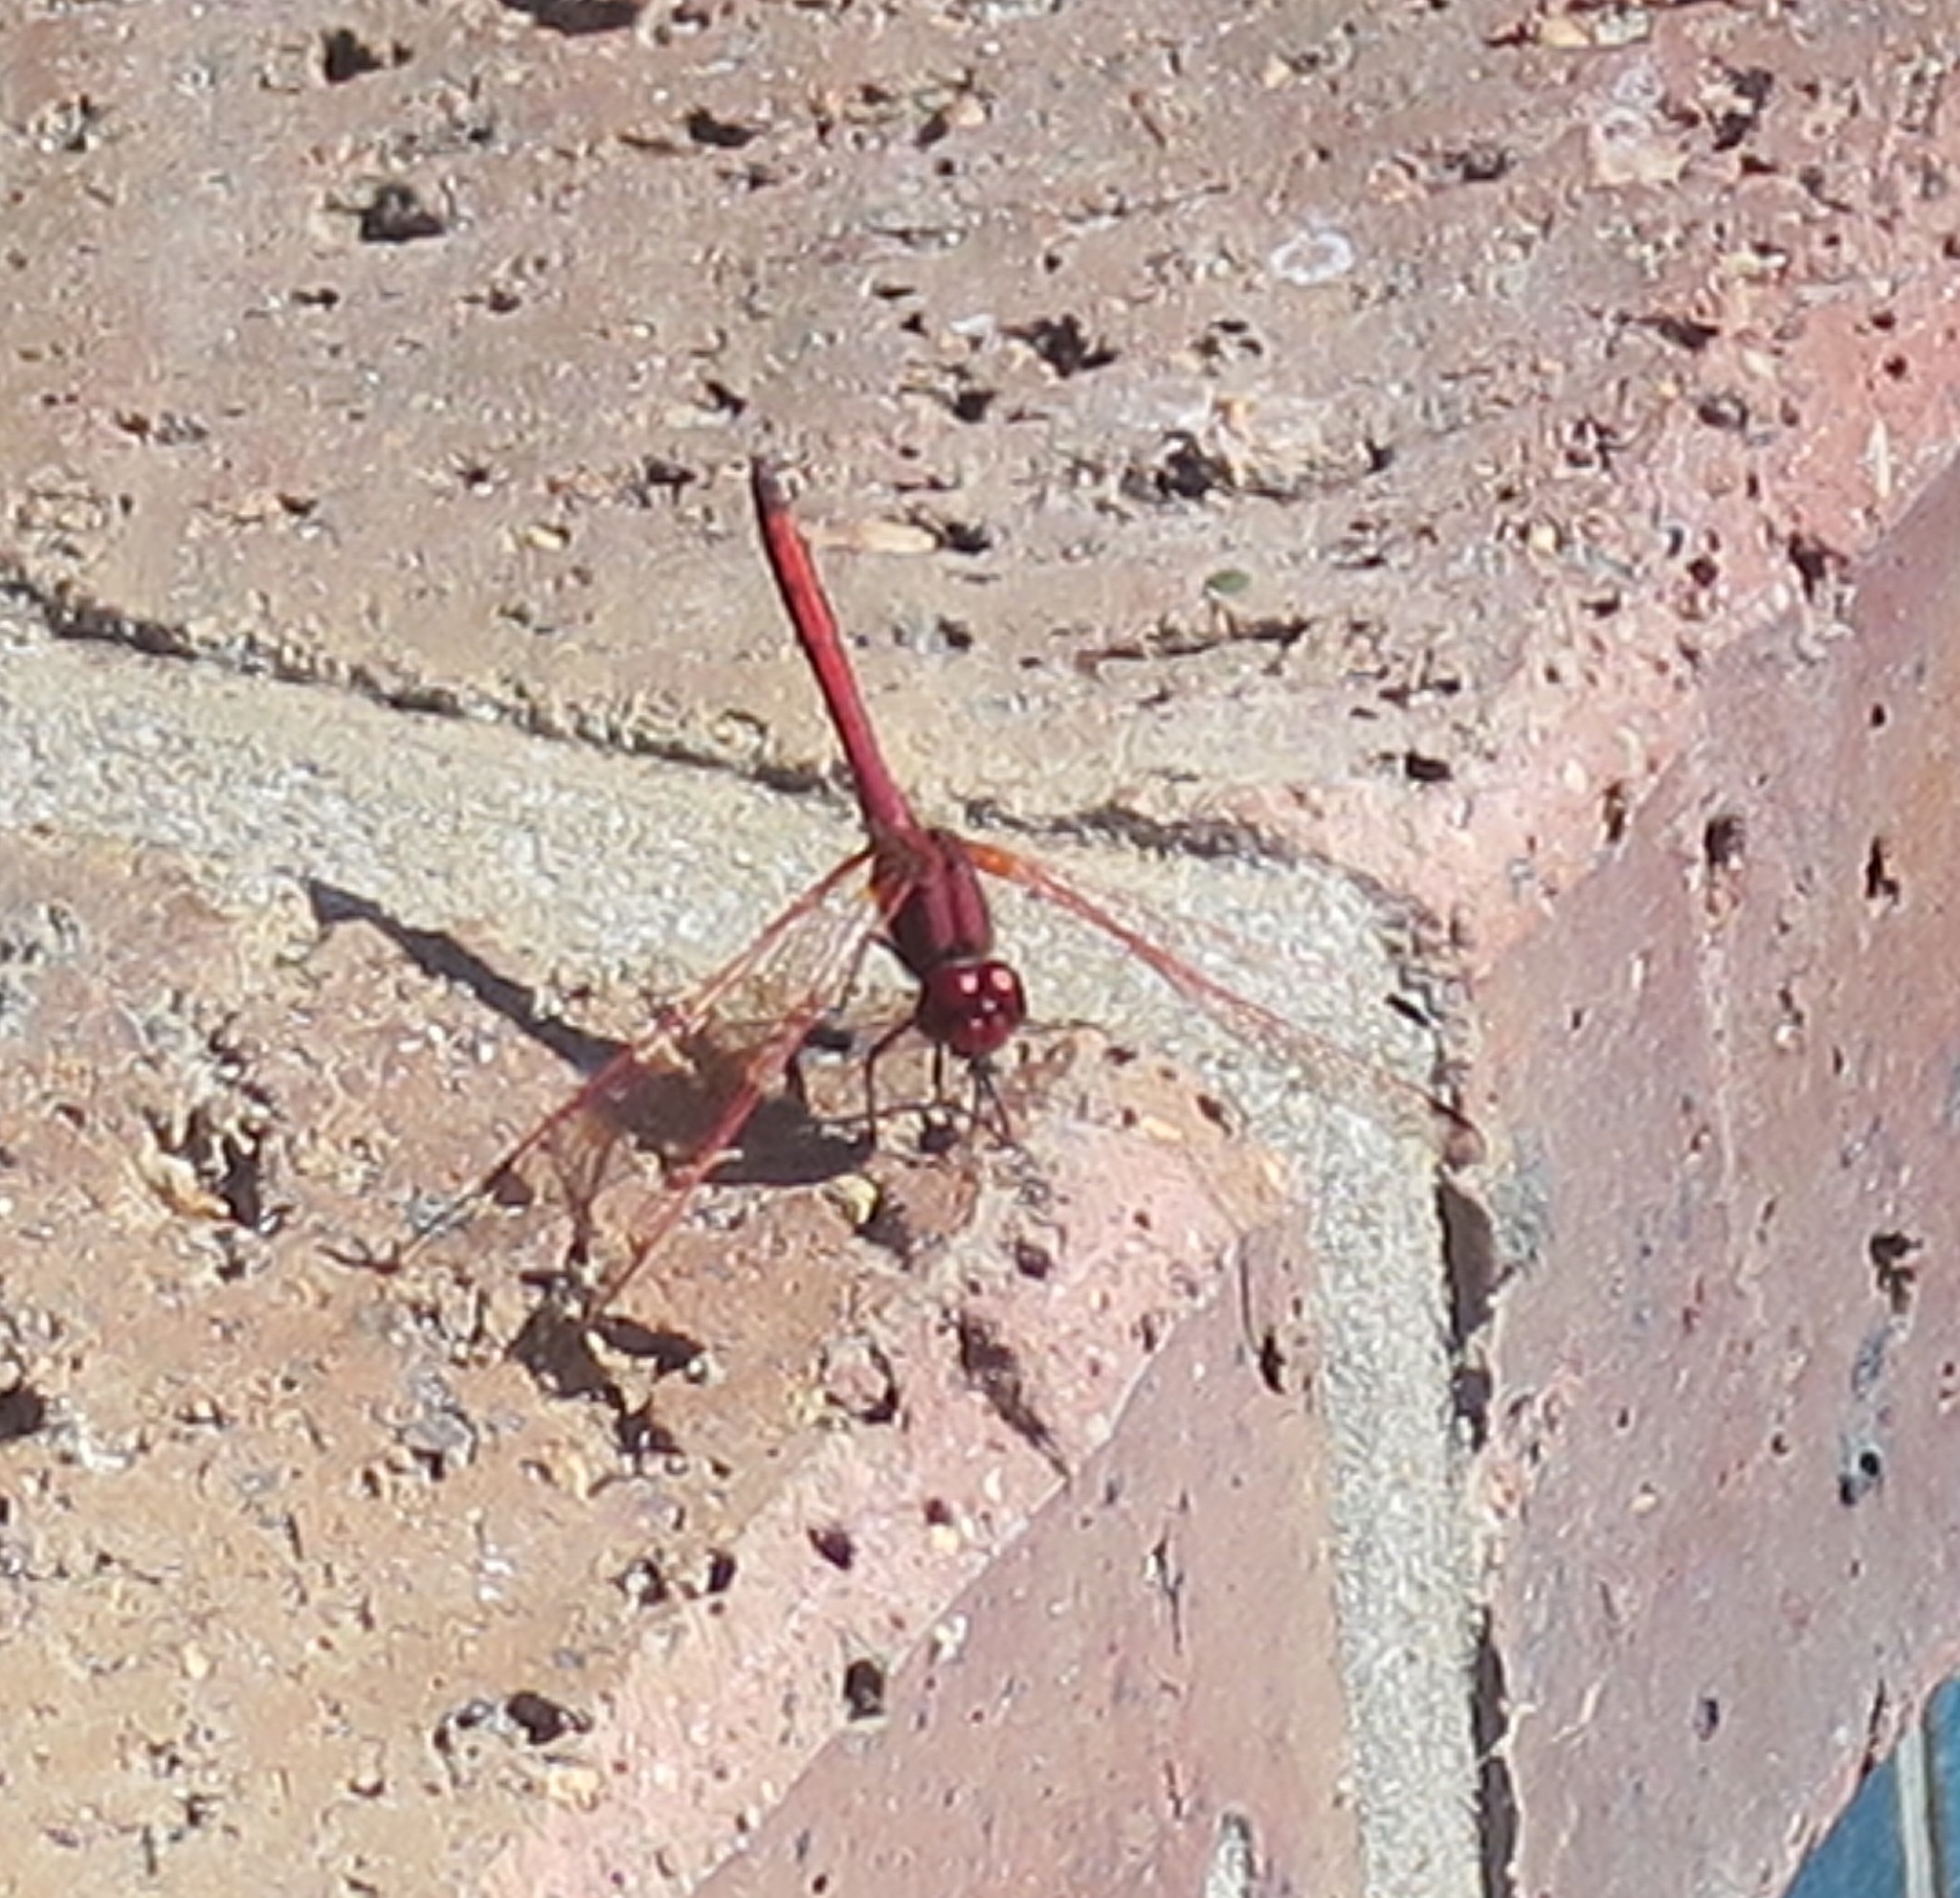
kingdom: Animalia
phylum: Arthropoda
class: Insecta
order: Odonata
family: Libellulidae
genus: Trithemis
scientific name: Trithemis arteriosa
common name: Red-veined dropwing
